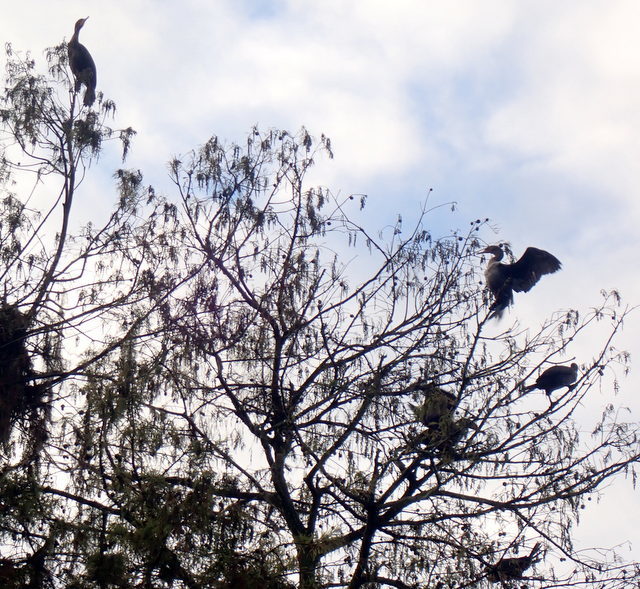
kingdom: Animalia
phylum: Chordata
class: Aves
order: Suliformes
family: Phalacrocoracidae
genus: Phalacrocorax
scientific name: Phalacrocorax auritus
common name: Double-crested cormorant
